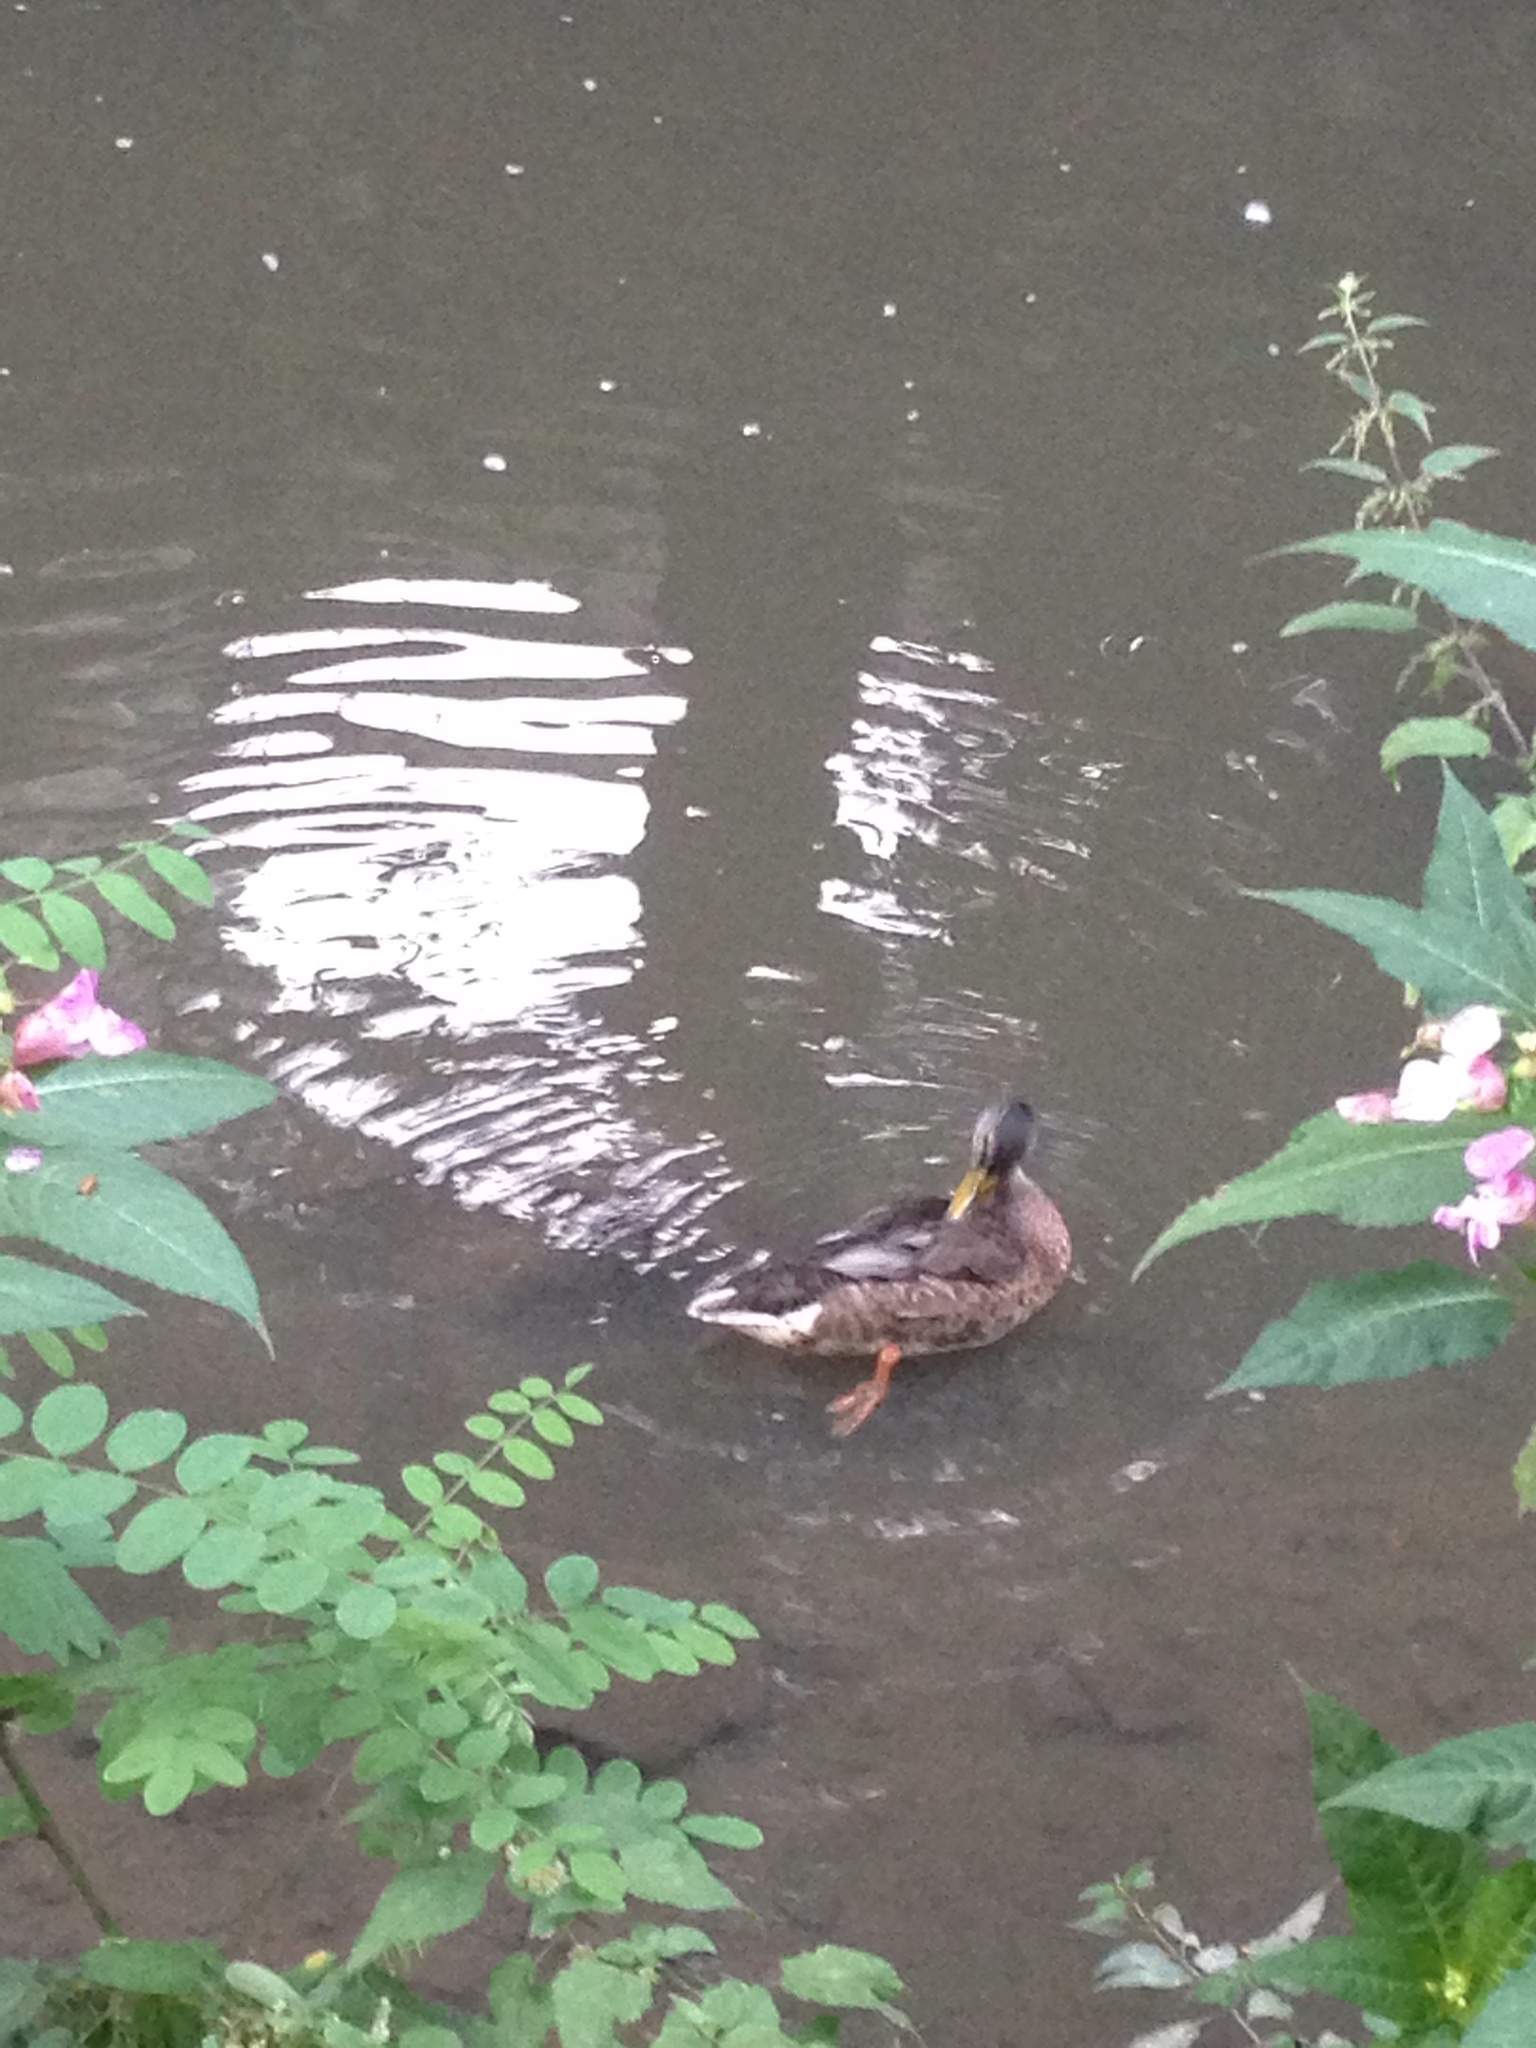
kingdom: Animalia
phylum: Chordata
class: Aves
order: Anseriformes
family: Anatidae
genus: Anas
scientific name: Anas platyrhynchos
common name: Mallard
